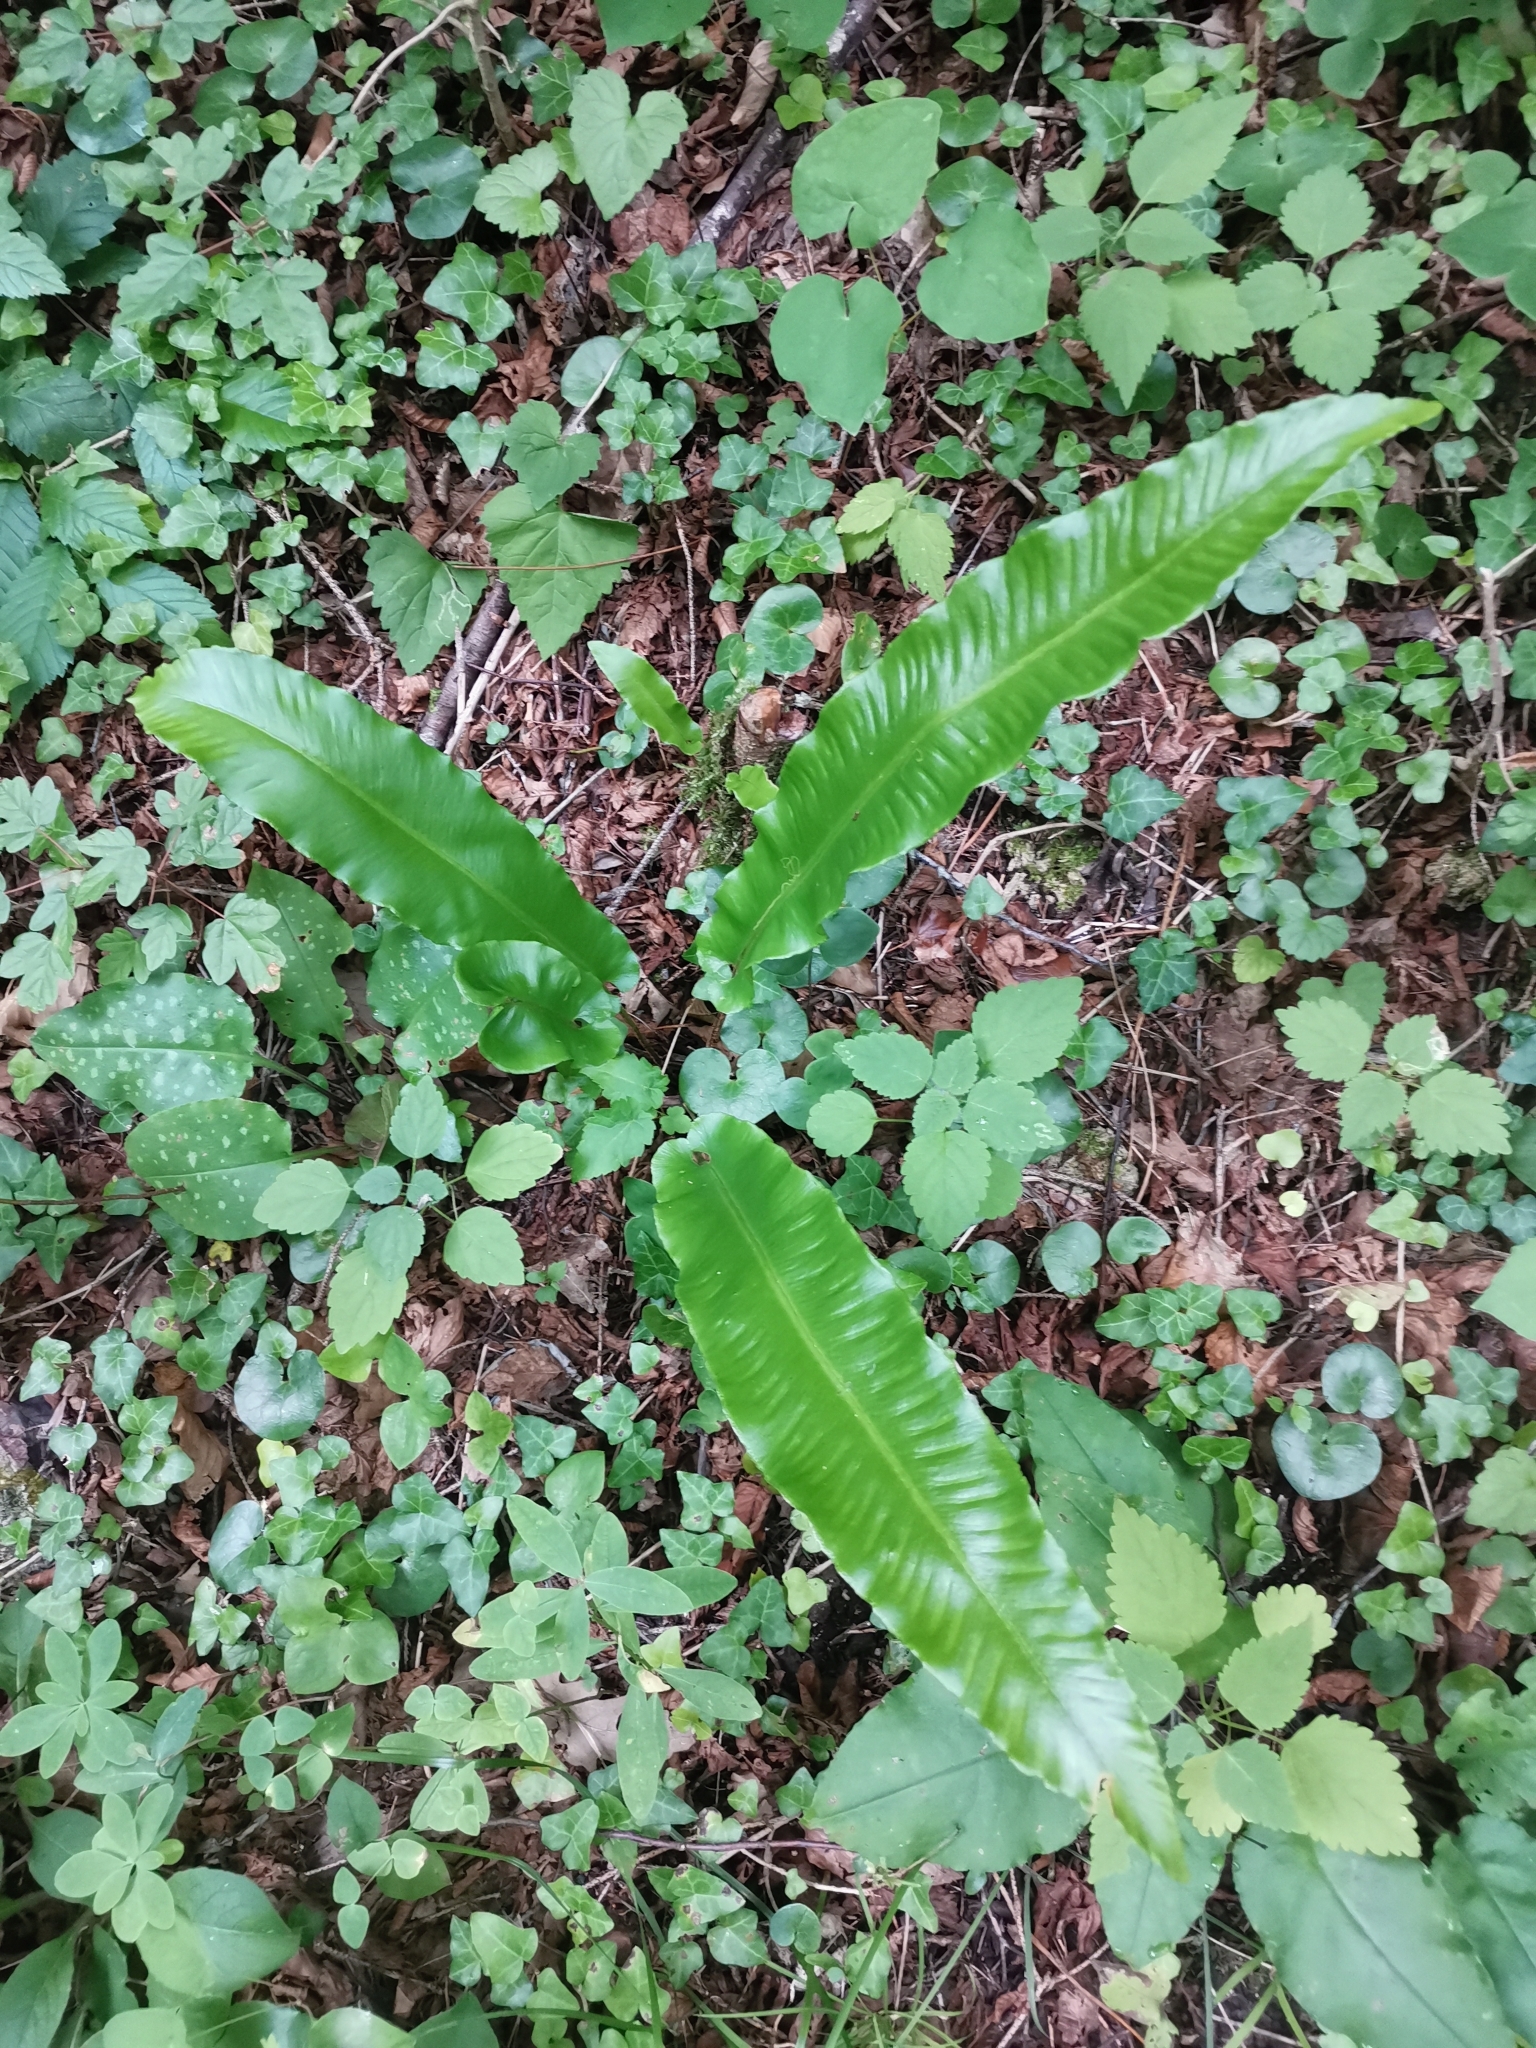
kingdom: Plantae
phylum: Tracheophyta
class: Polypodiopsida
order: Polypodiales
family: Aspleniaceae
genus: Asplenium
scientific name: Asplenium scolopendrium
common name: Hart's-tongue fern
